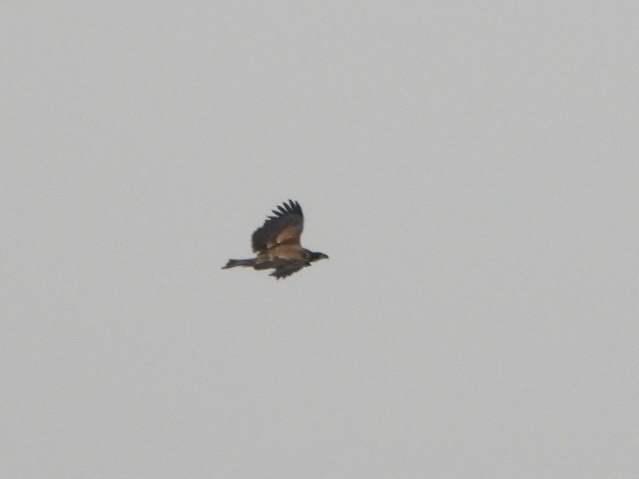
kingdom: Animalia
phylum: Chordata
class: Aves
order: Accipitriformes
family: Accipitridae
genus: Haliaeetus
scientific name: Haliaeetus leucocephalus
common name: Bald eagle
